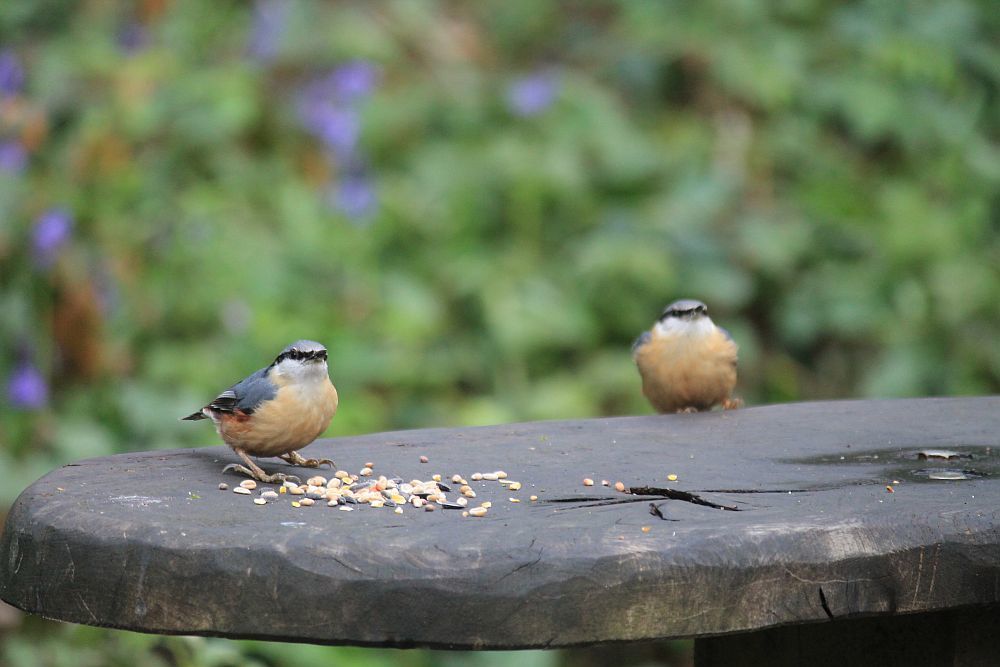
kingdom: Animalia
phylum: Chordata
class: Aves
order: Passeriformes
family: Sittidae
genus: Sitta
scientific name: Sitta europaea
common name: Eurasian nuthatch
